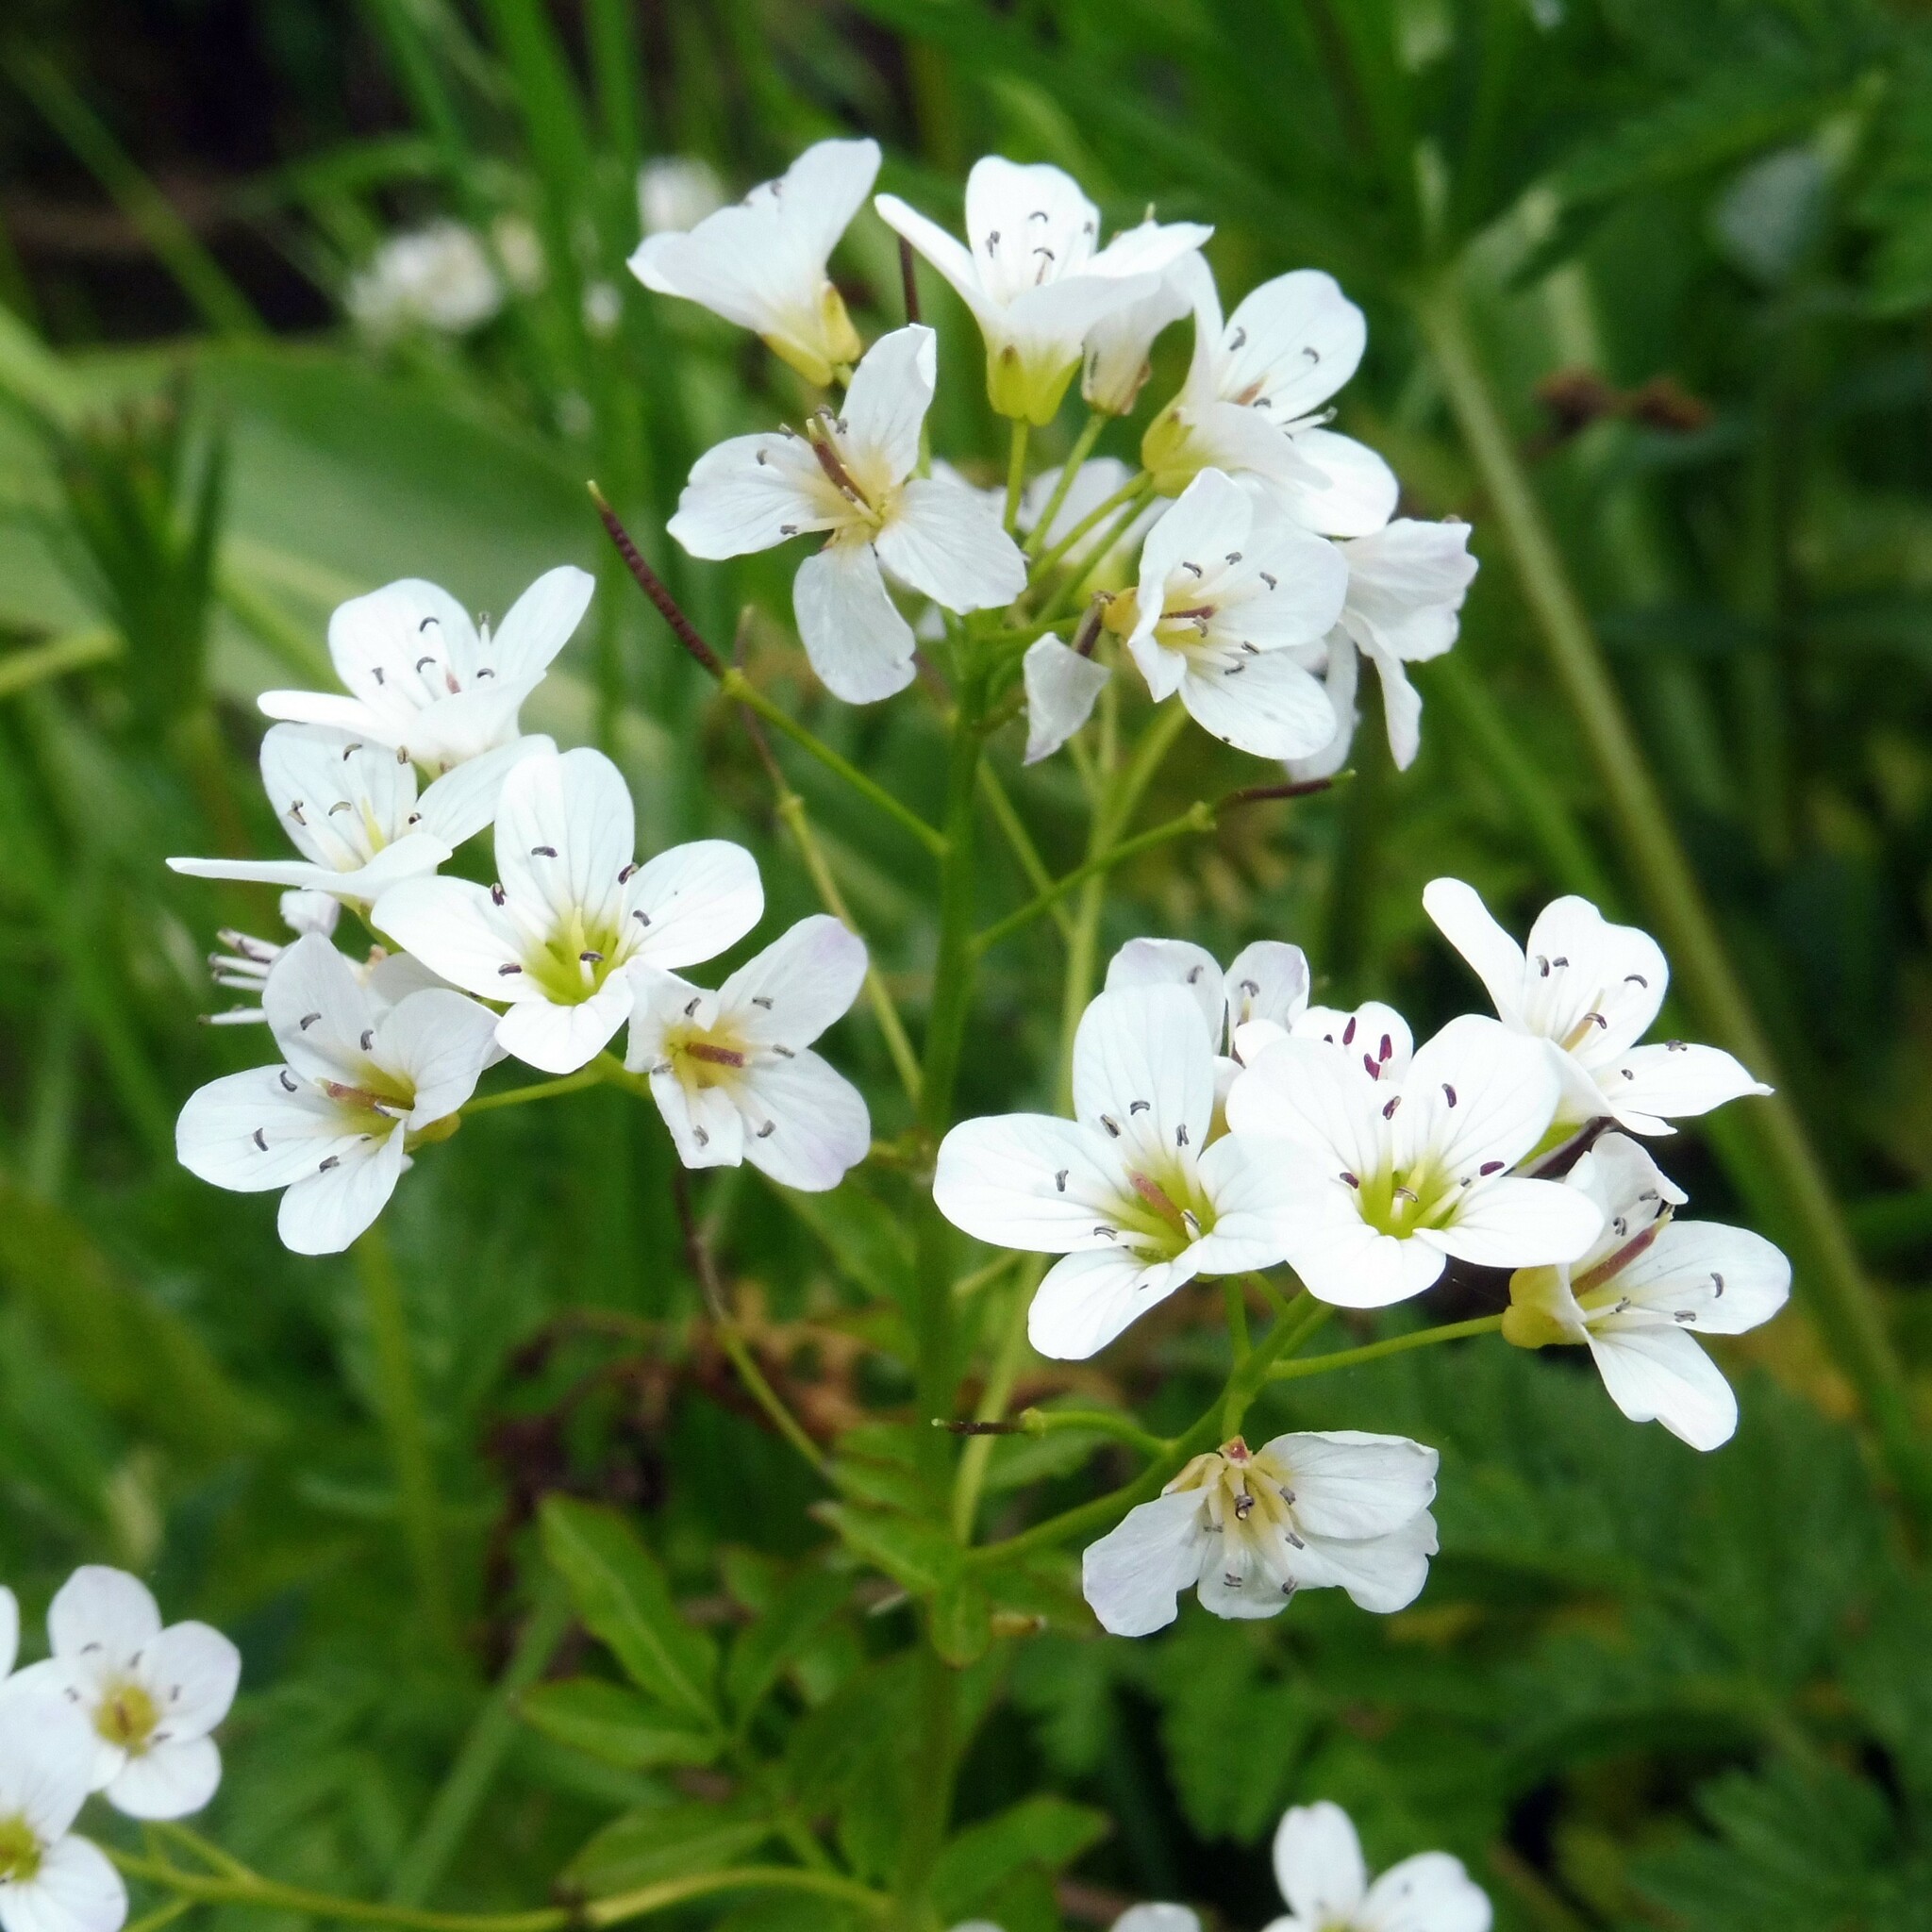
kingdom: Plantae
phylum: Tracheophyta
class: Magnoliopsida
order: Brassicales
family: Brassicaceae
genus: Cardamine
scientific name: Cardamine amara
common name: Large bitter-cress
